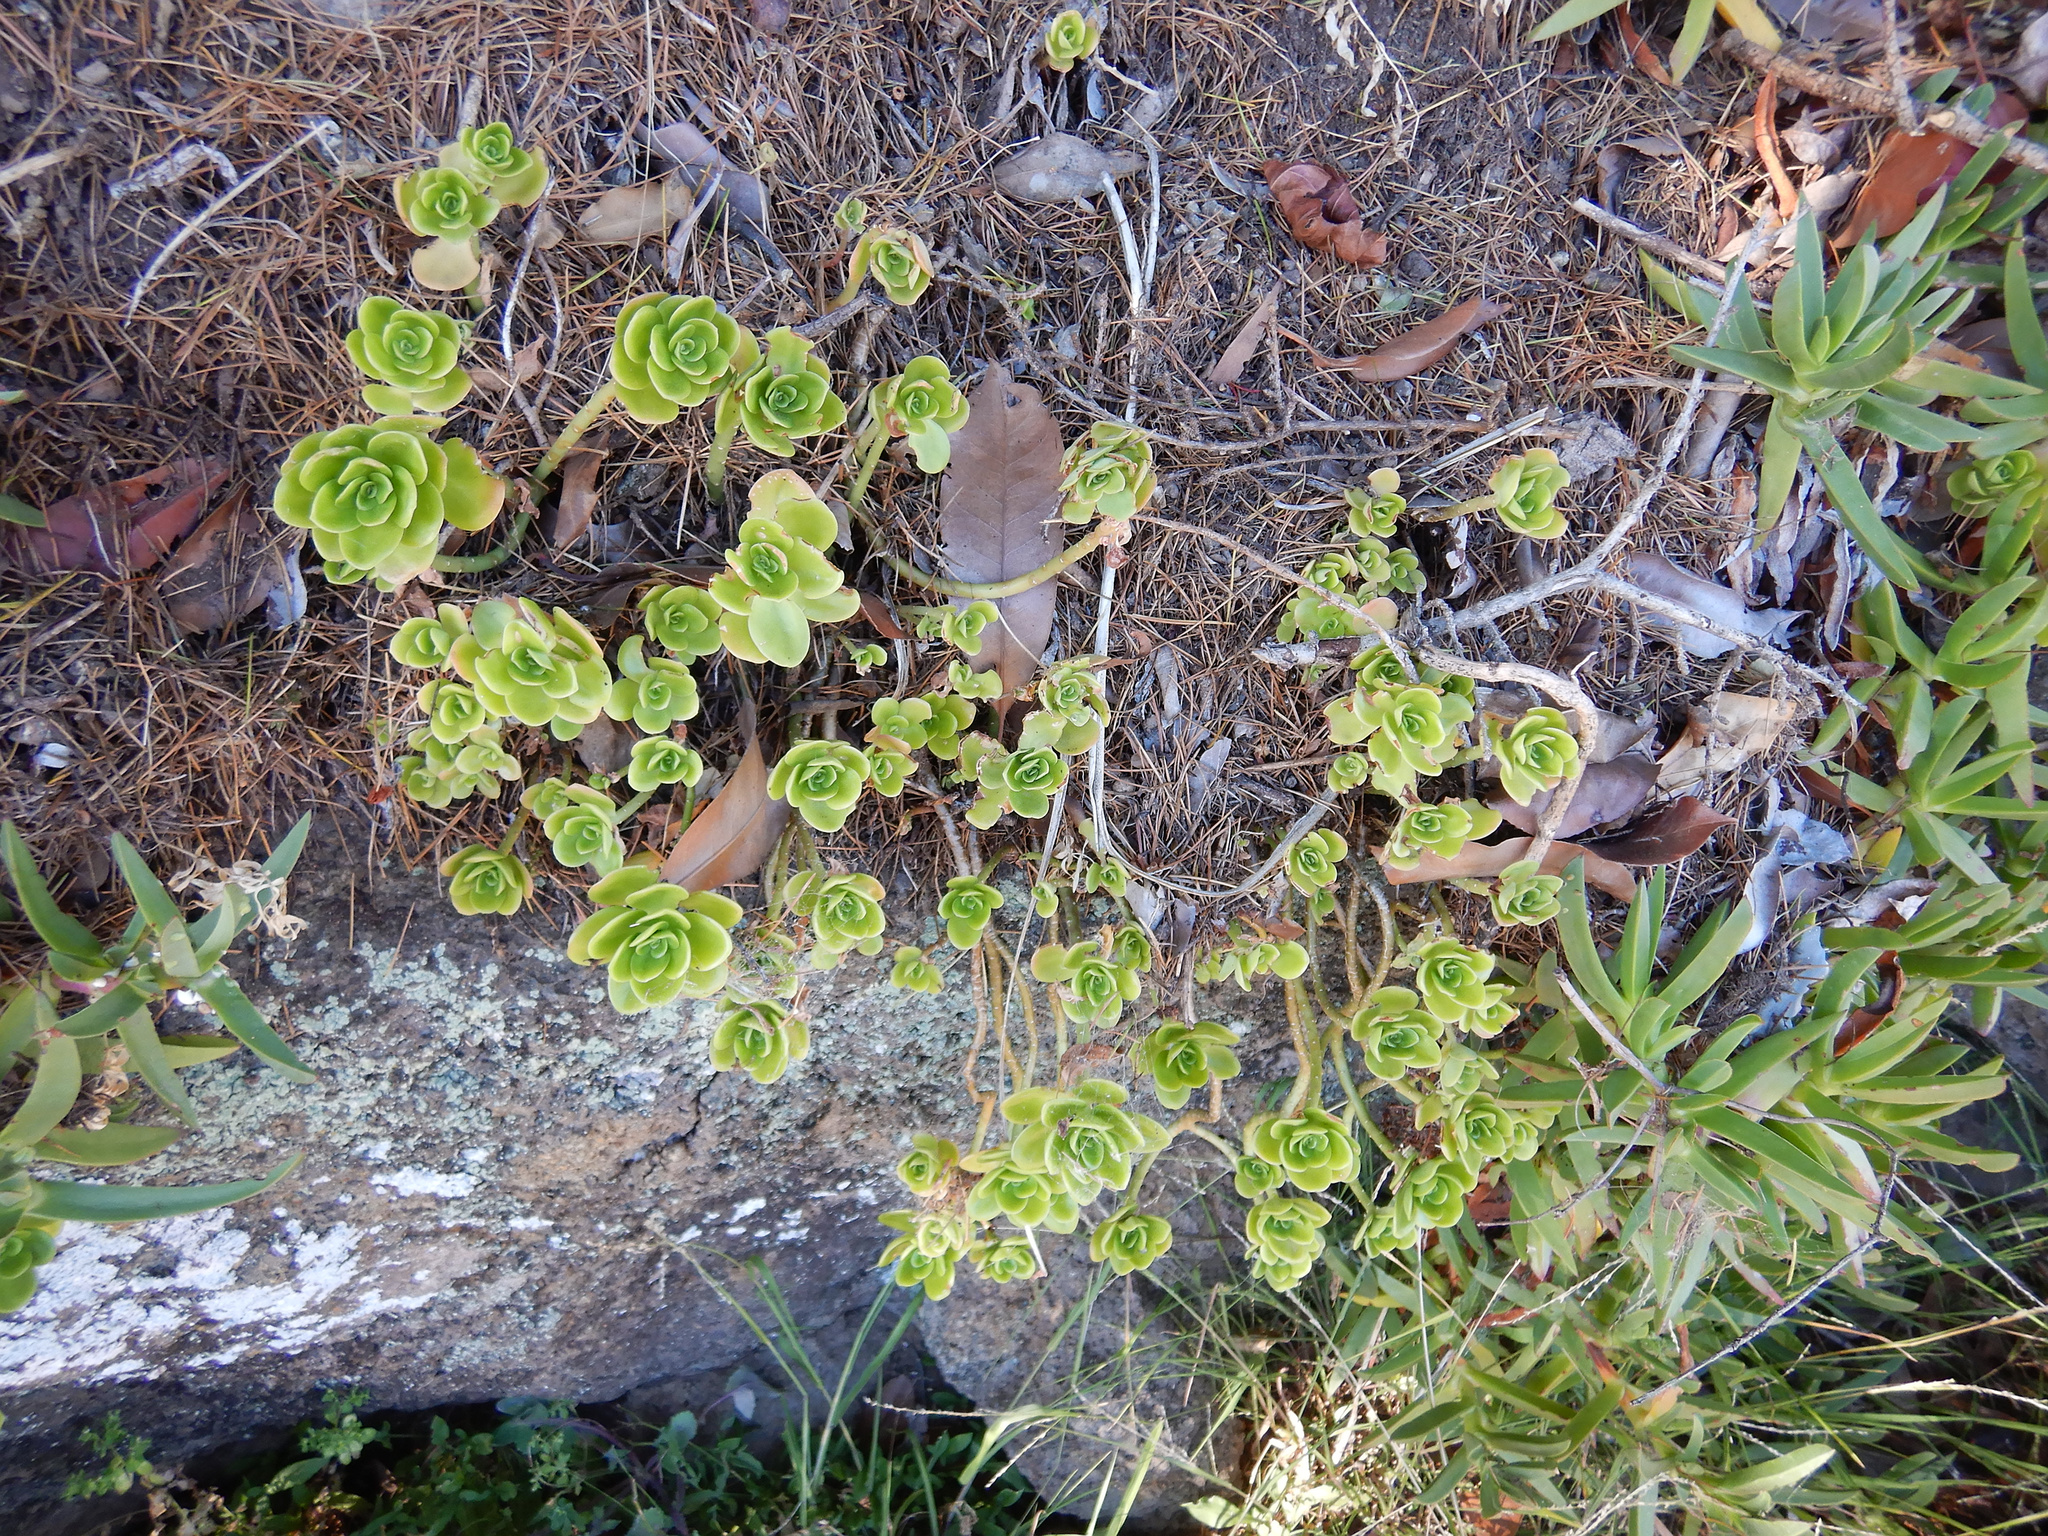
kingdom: Plantae
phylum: Tracheophyta
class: Magnoliopsida
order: Saxifragales
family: Crassulaceae
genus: Sedum
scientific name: Sedum kimnachii
